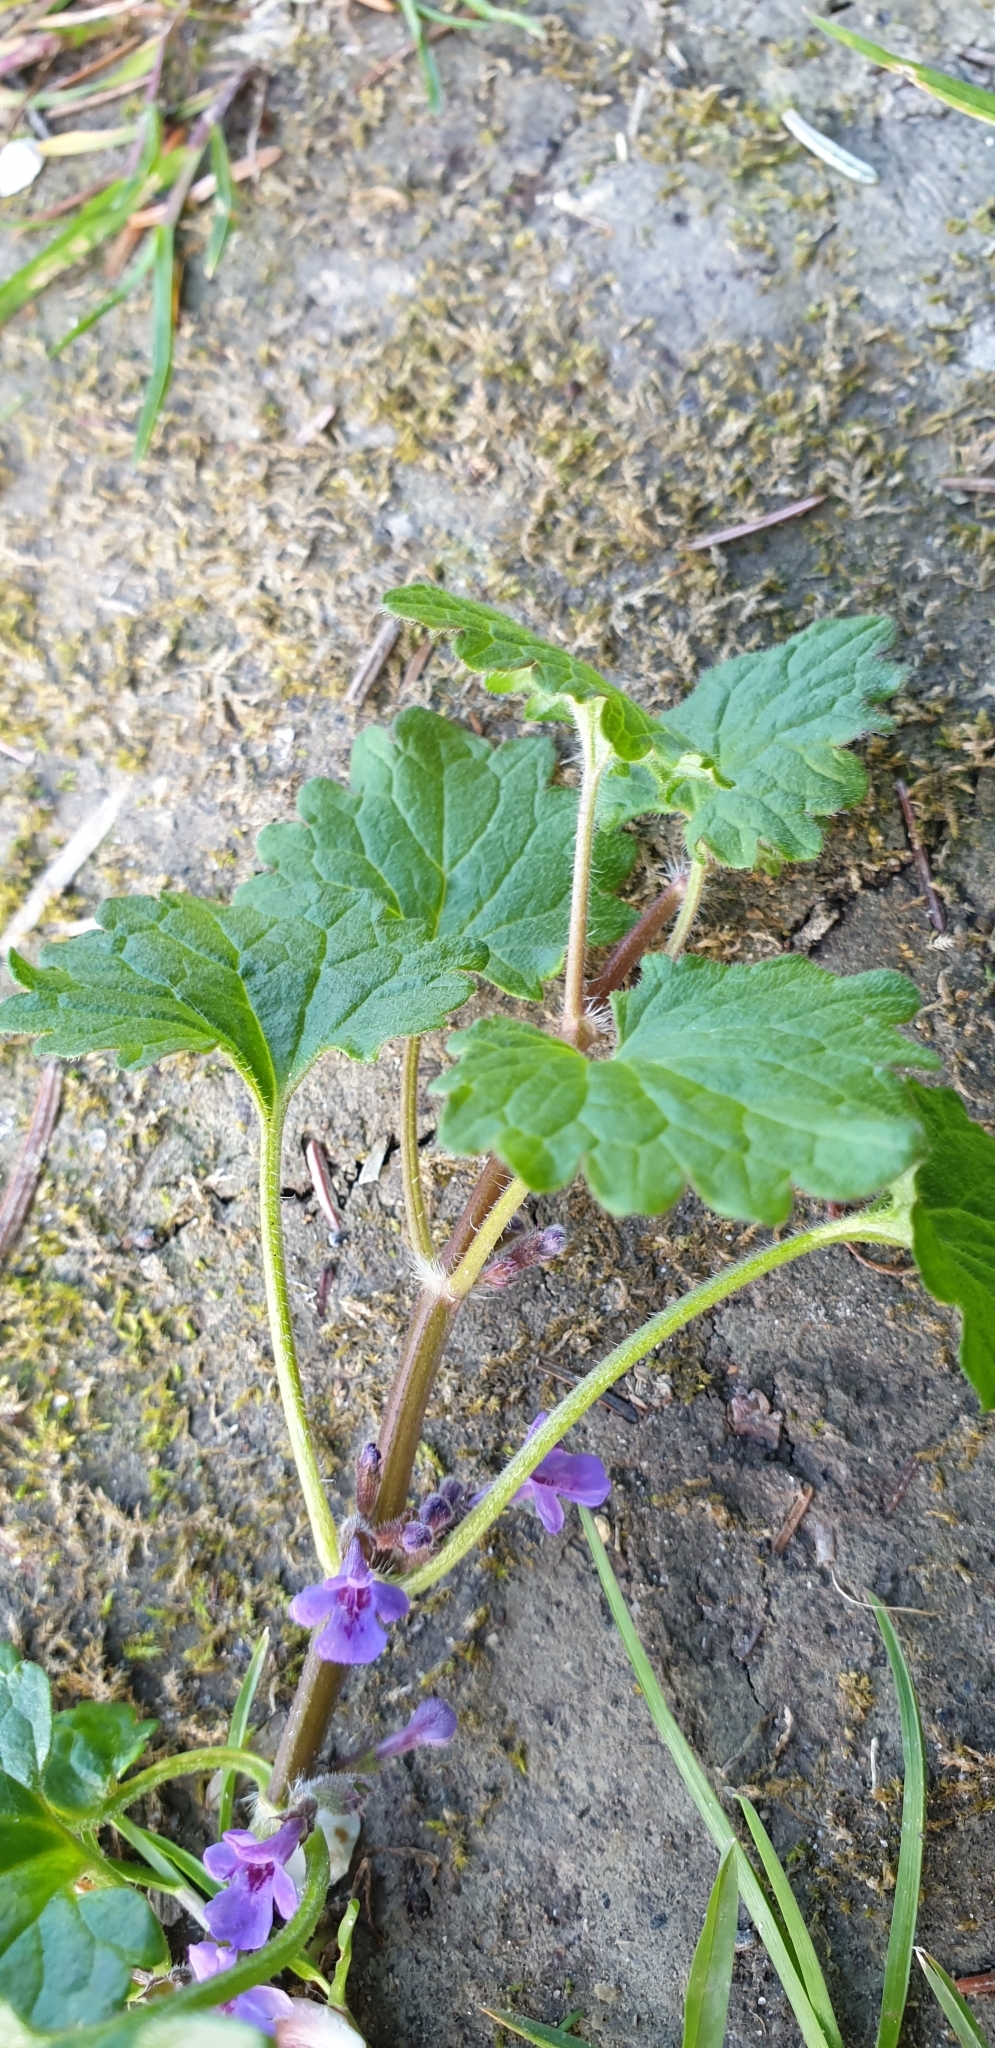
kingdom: Plantae
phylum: Tracheophyta
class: Magnoliopsida
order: Lamiales
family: Lamiaceae
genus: Glechoma
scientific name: Glechoma hederacea
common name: Ground ivy
